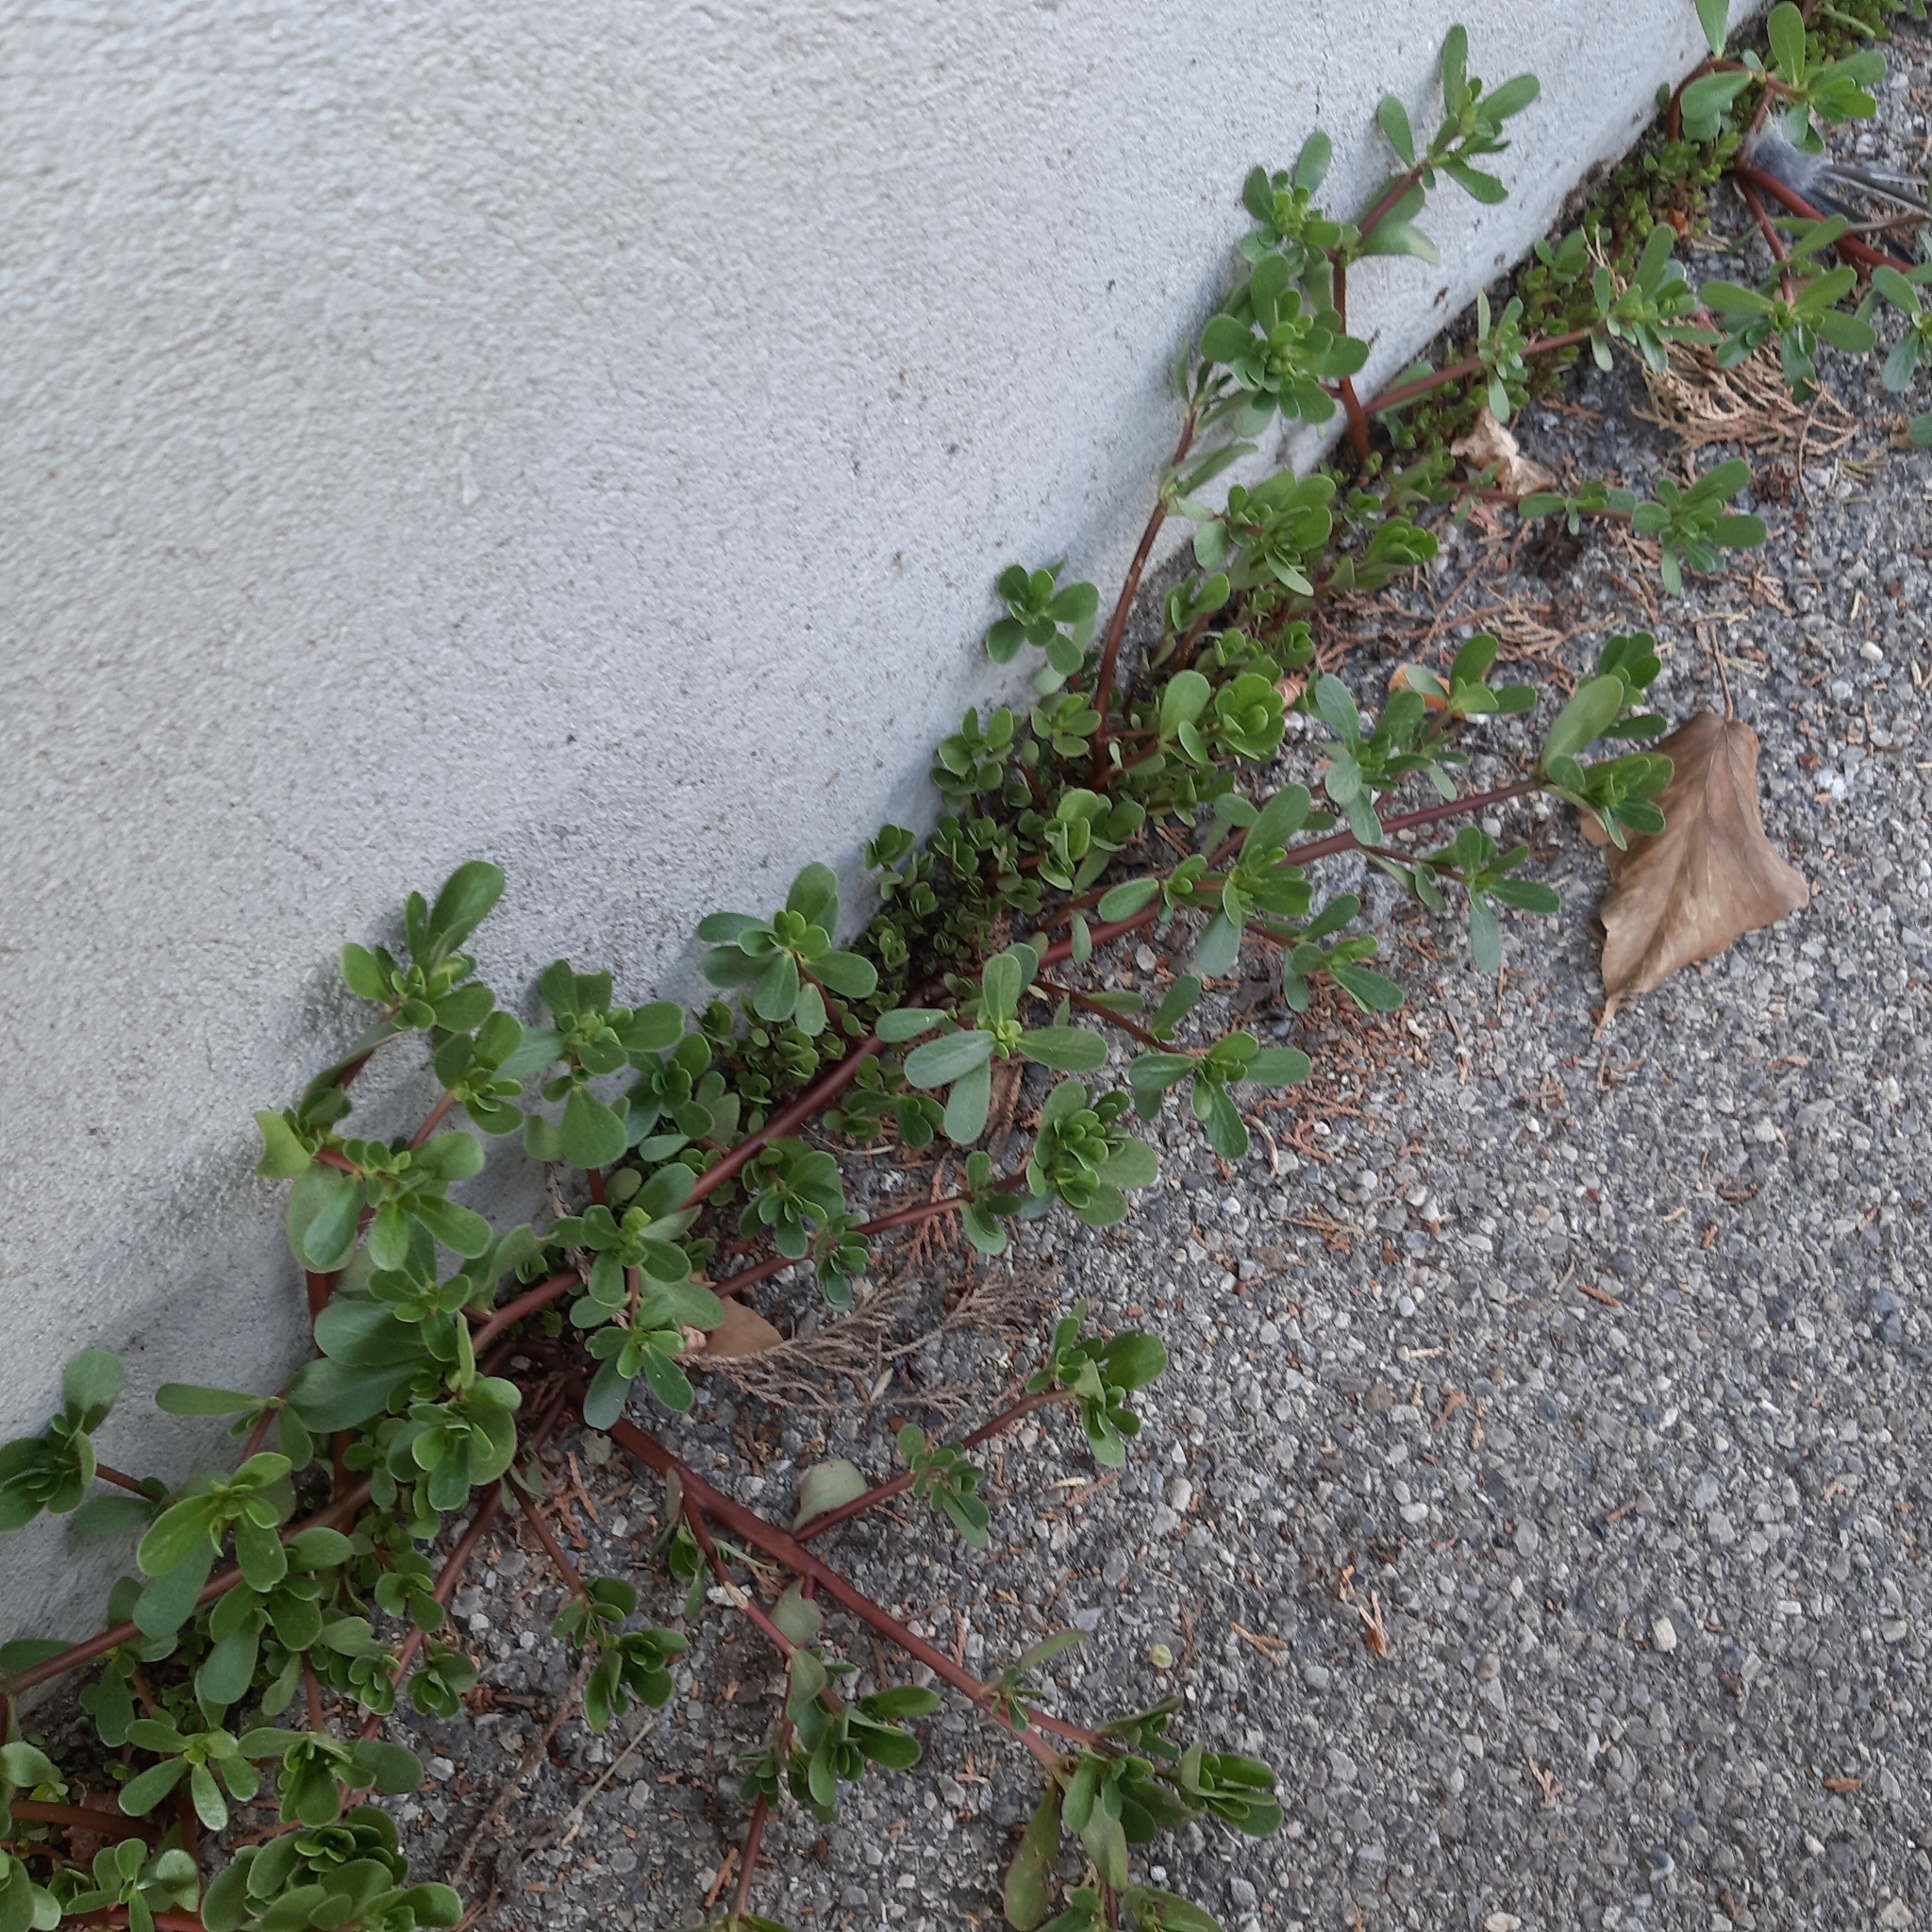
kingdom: Plantae
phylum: Tracheophyta
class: Magnoliopsida
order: Caryophyllales
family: Portulacaceae
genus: Portulaca
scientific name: Portulaca oleracea
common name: Common purslane
